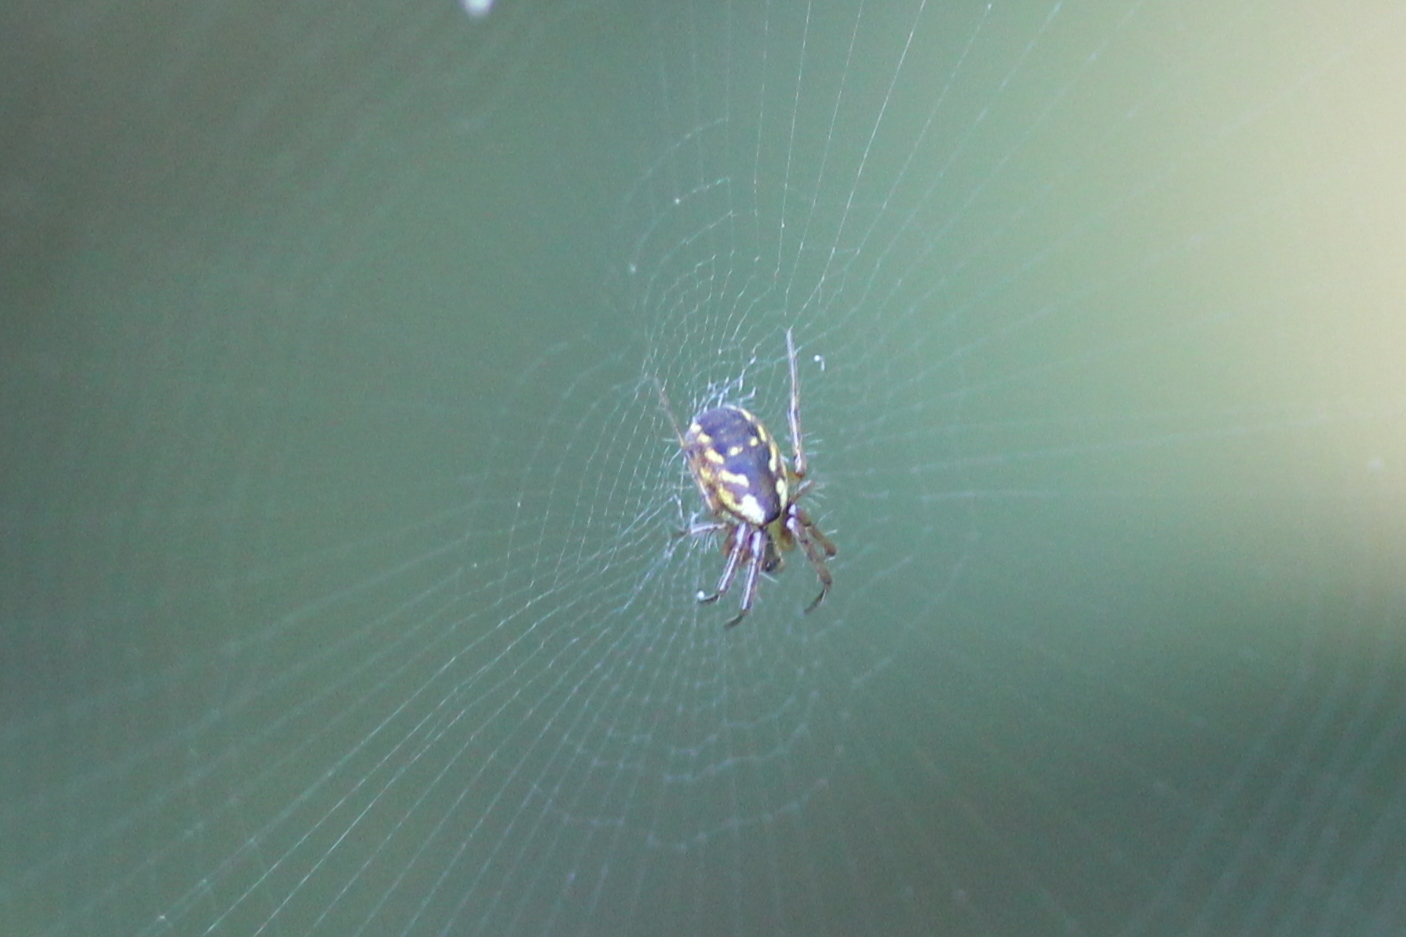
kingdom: Animalia
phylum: Arthropoda
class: Arachnida
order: Araneae
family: Araneidae
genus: Mangora
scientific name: Mangora placida
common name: Tuft-legged orbweaver
